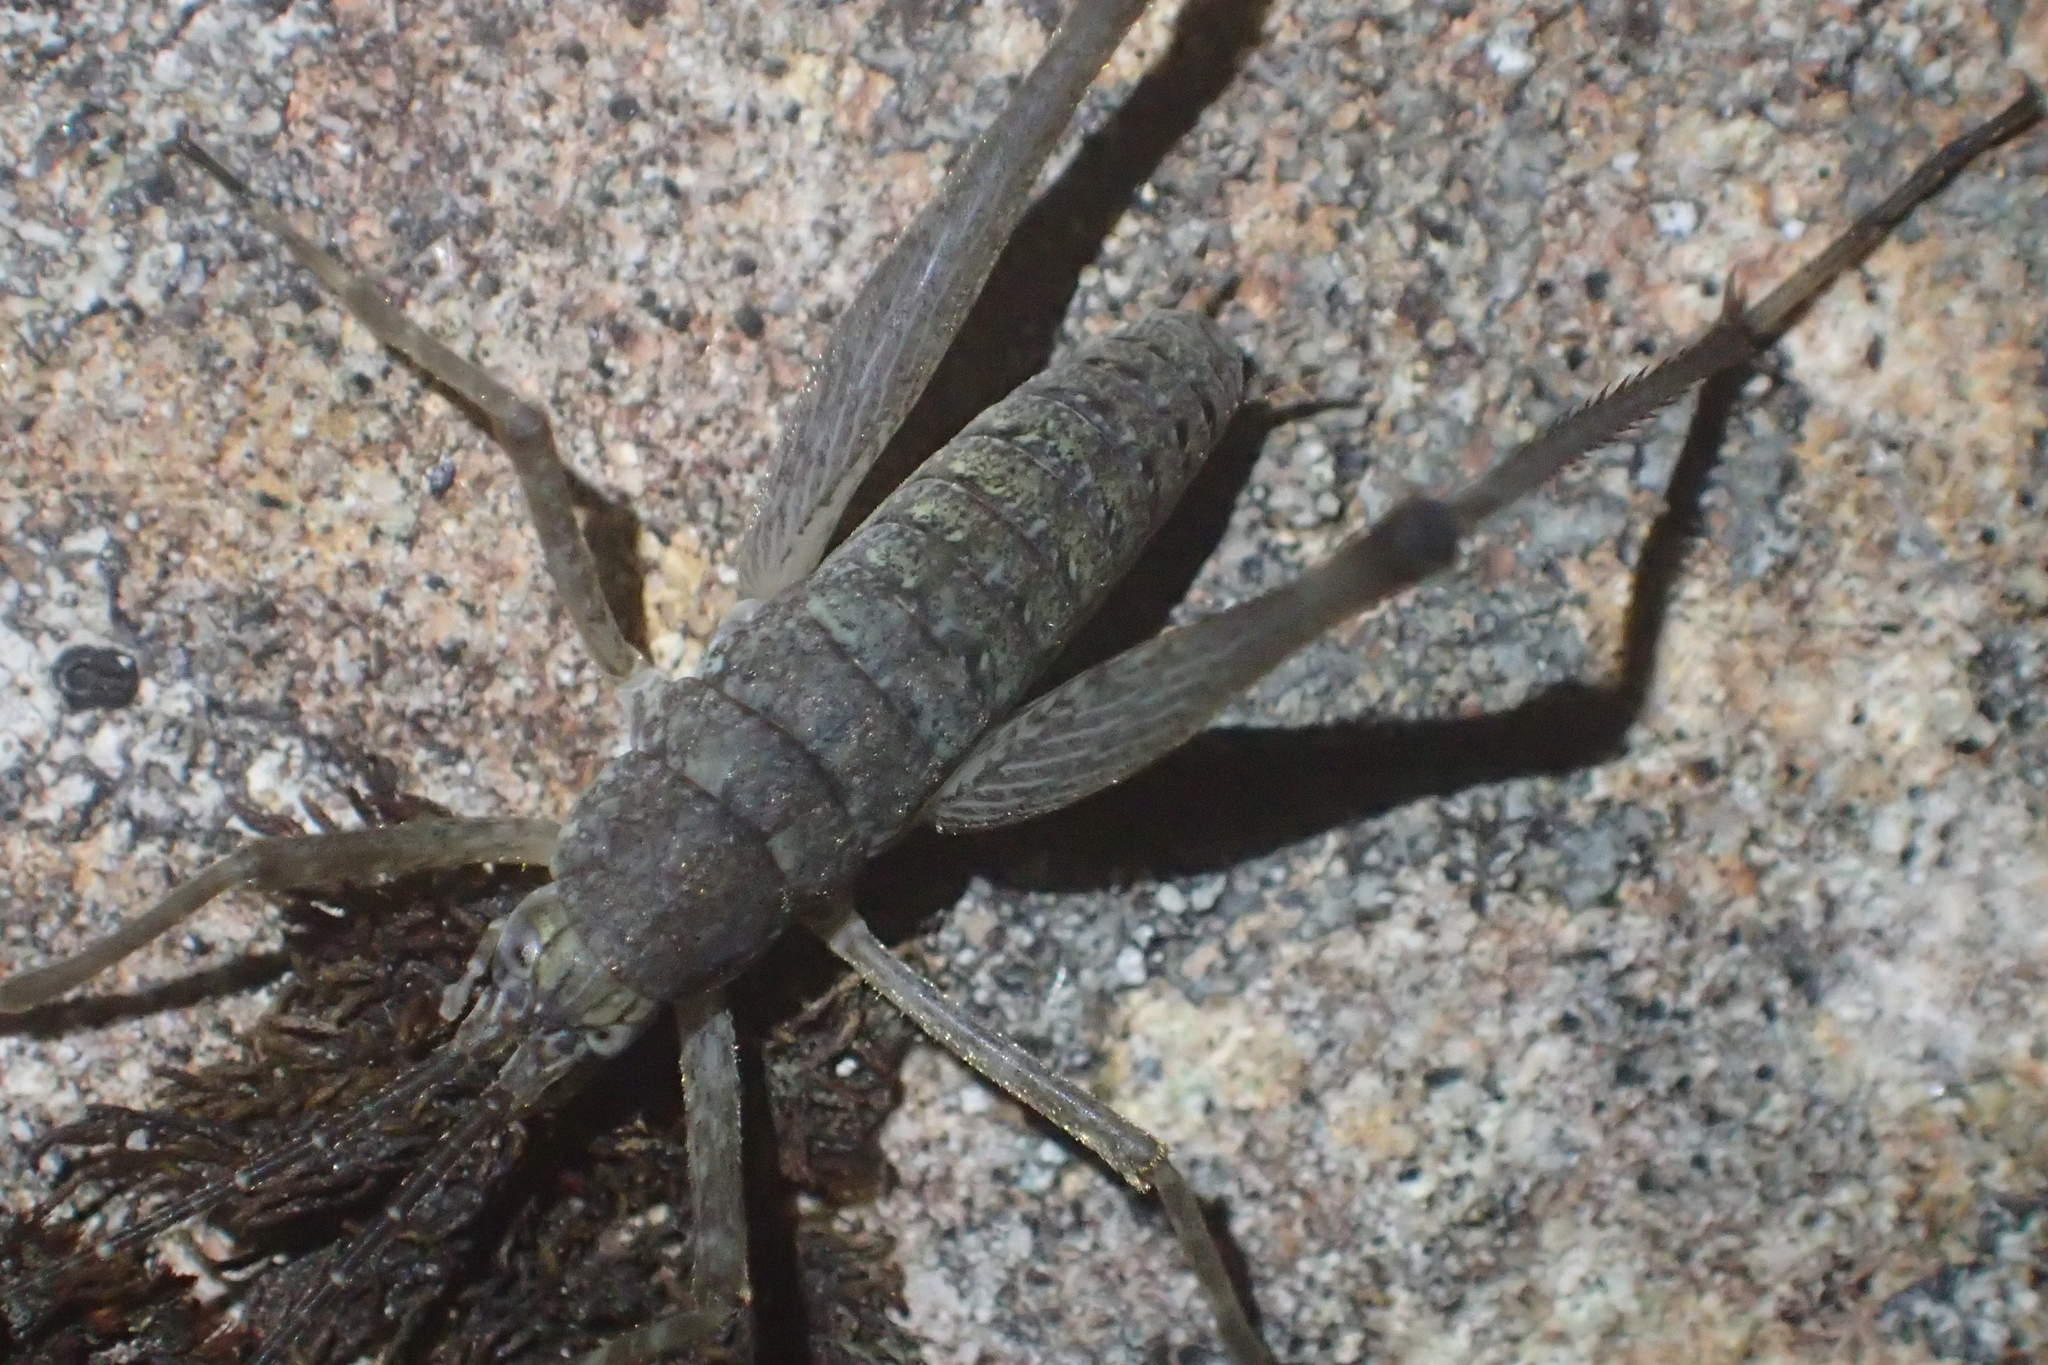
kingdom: Animalia
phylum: Arthropoda
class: Insecta
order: Orthoptera
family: Rhaphidophoridae
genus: Petrotettix
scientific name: Petrotettix cupolaensis
